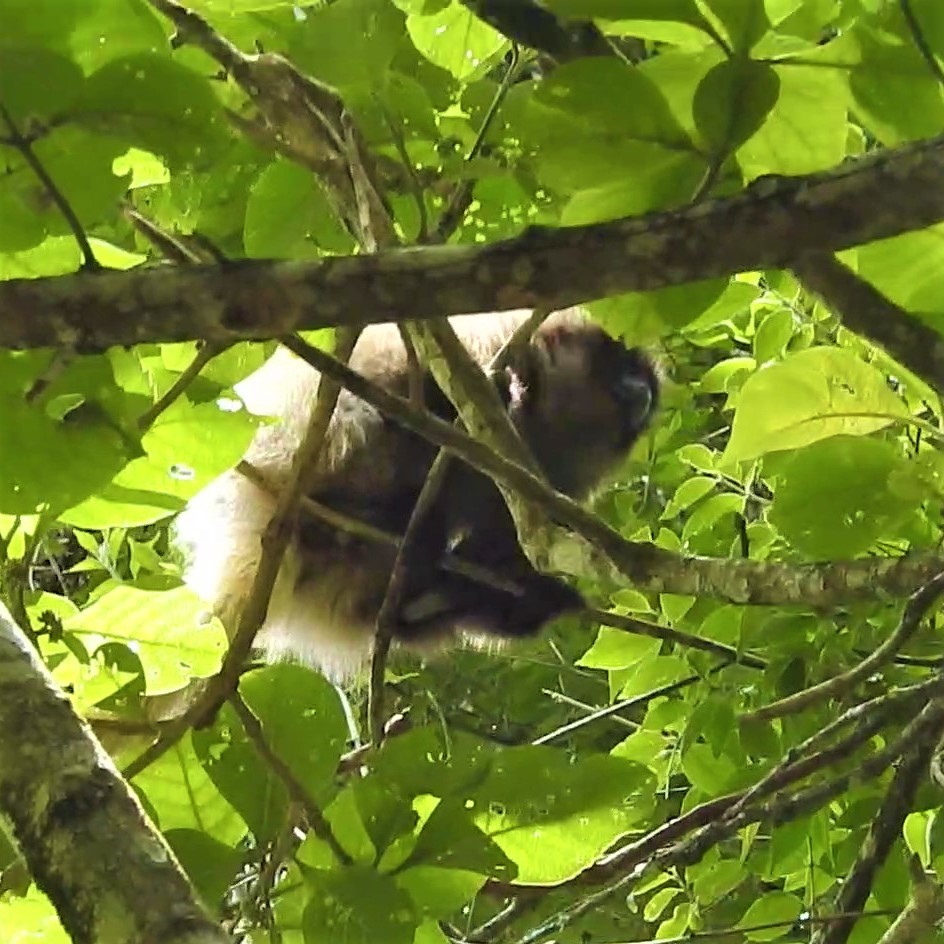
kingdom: Animalia
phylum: Chordata
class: Mammalia
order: Primates
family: Pitheciidae
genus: Callicebus
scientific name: Callicebus nigrifrons
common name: Black-fronted titi
